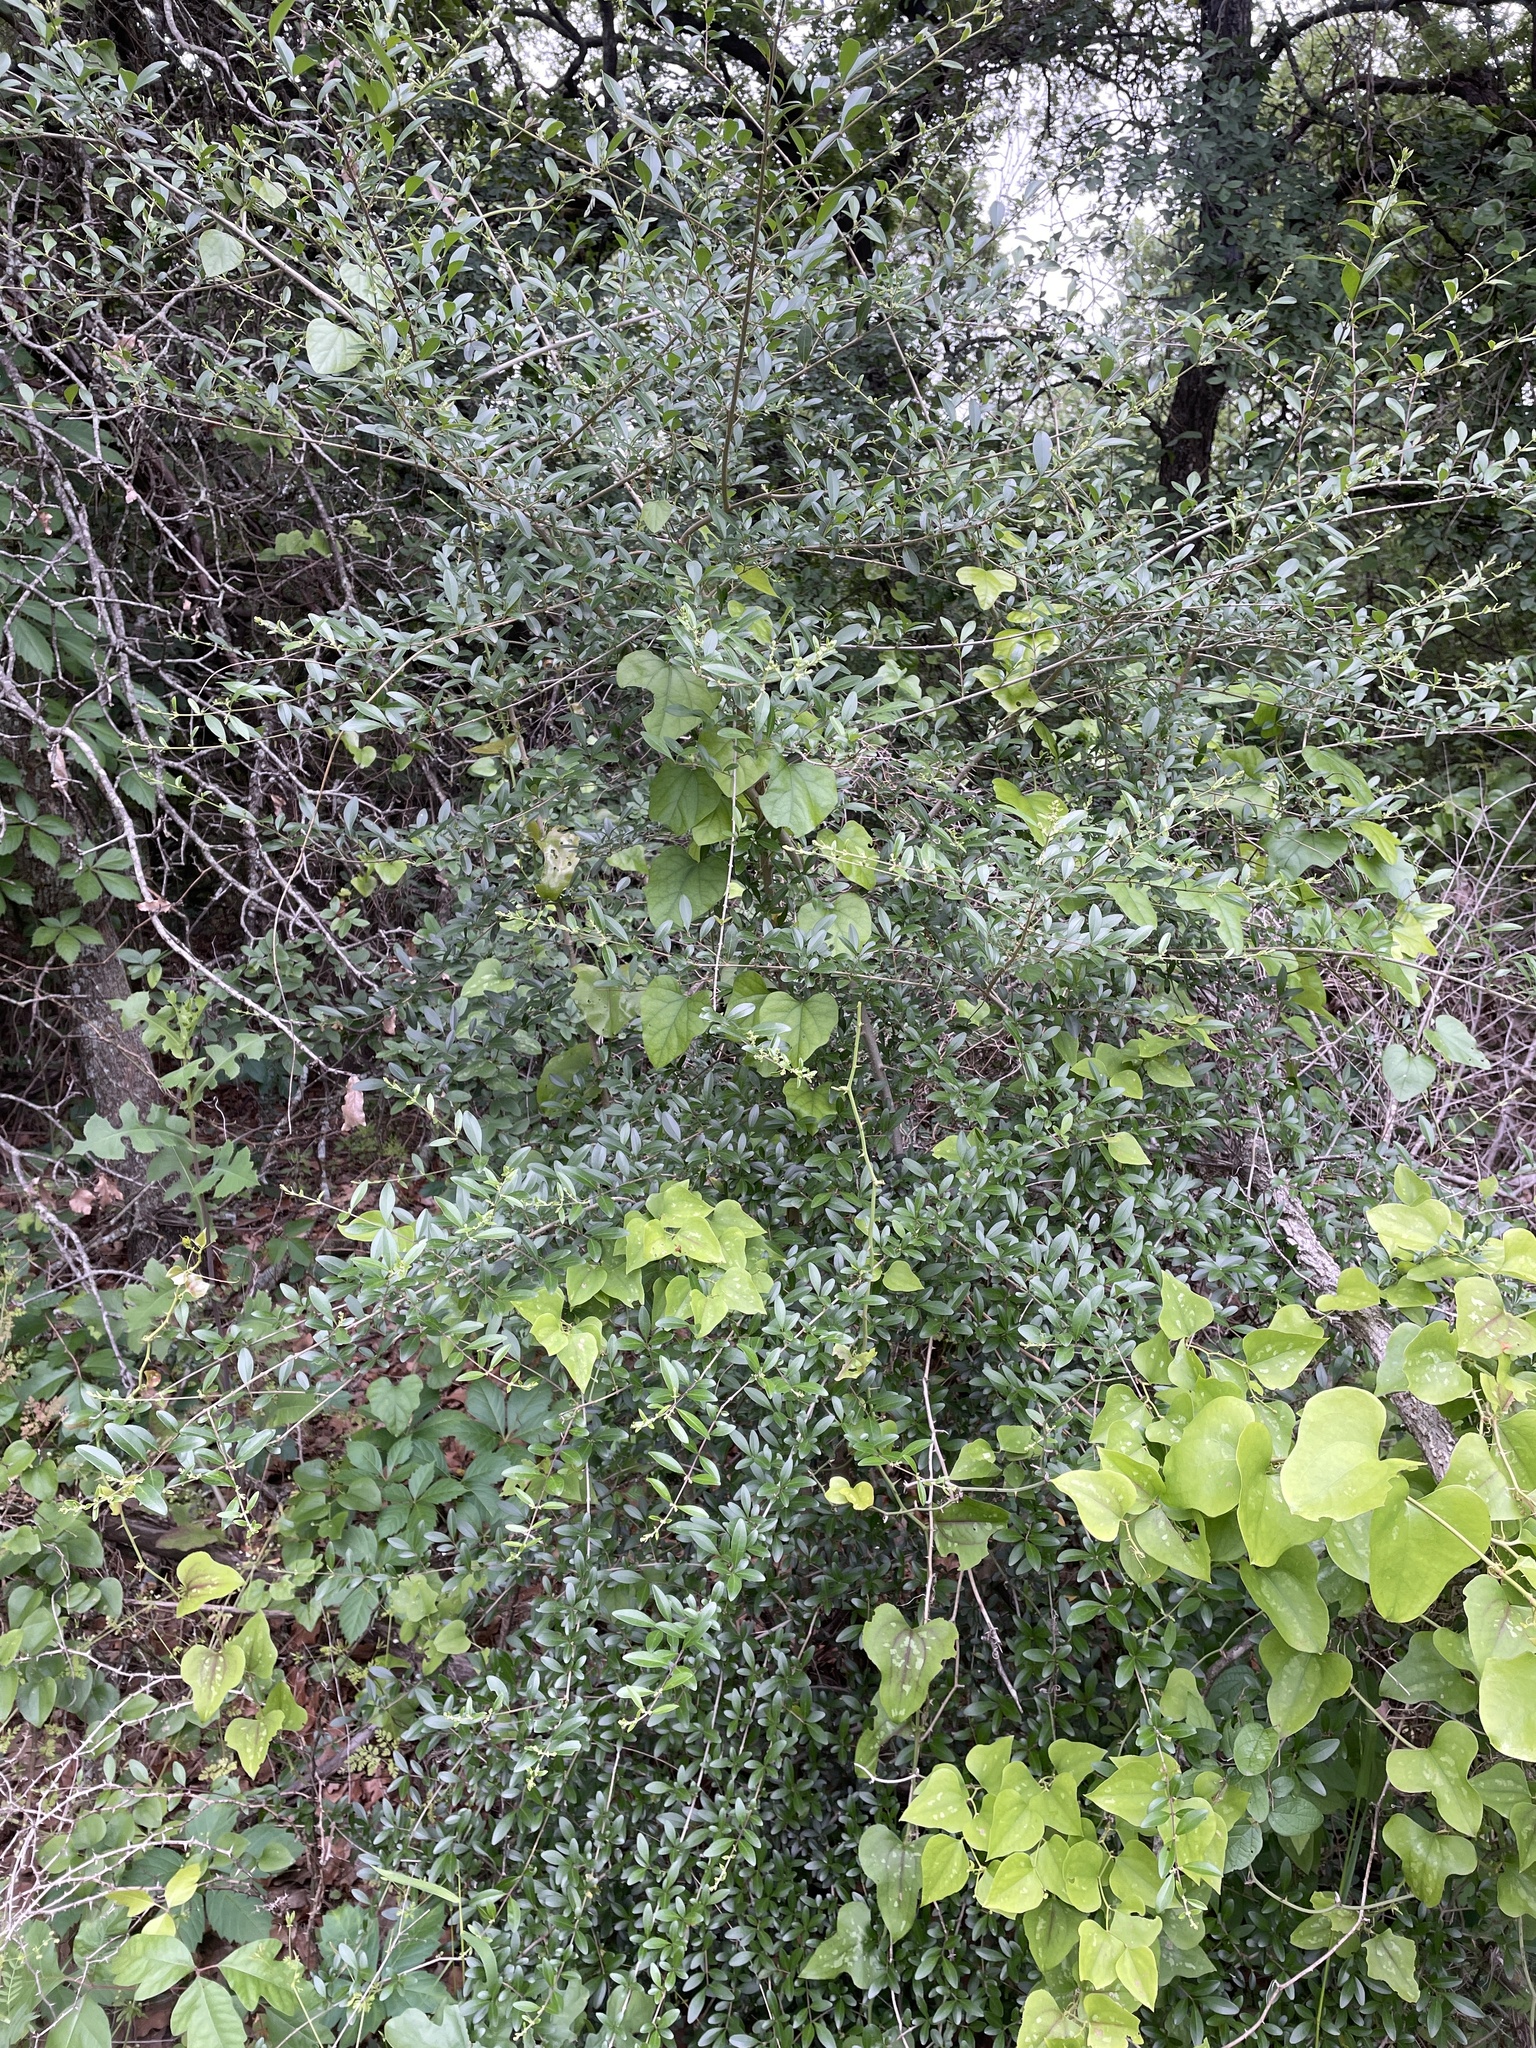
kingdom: Plantae
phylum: Tracheophyta
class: Magnoliopsida
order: Lamiales
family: Oleaceae
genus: Ligustrum
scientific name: Ligustrum quihoui
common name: Waxyleaf privet
